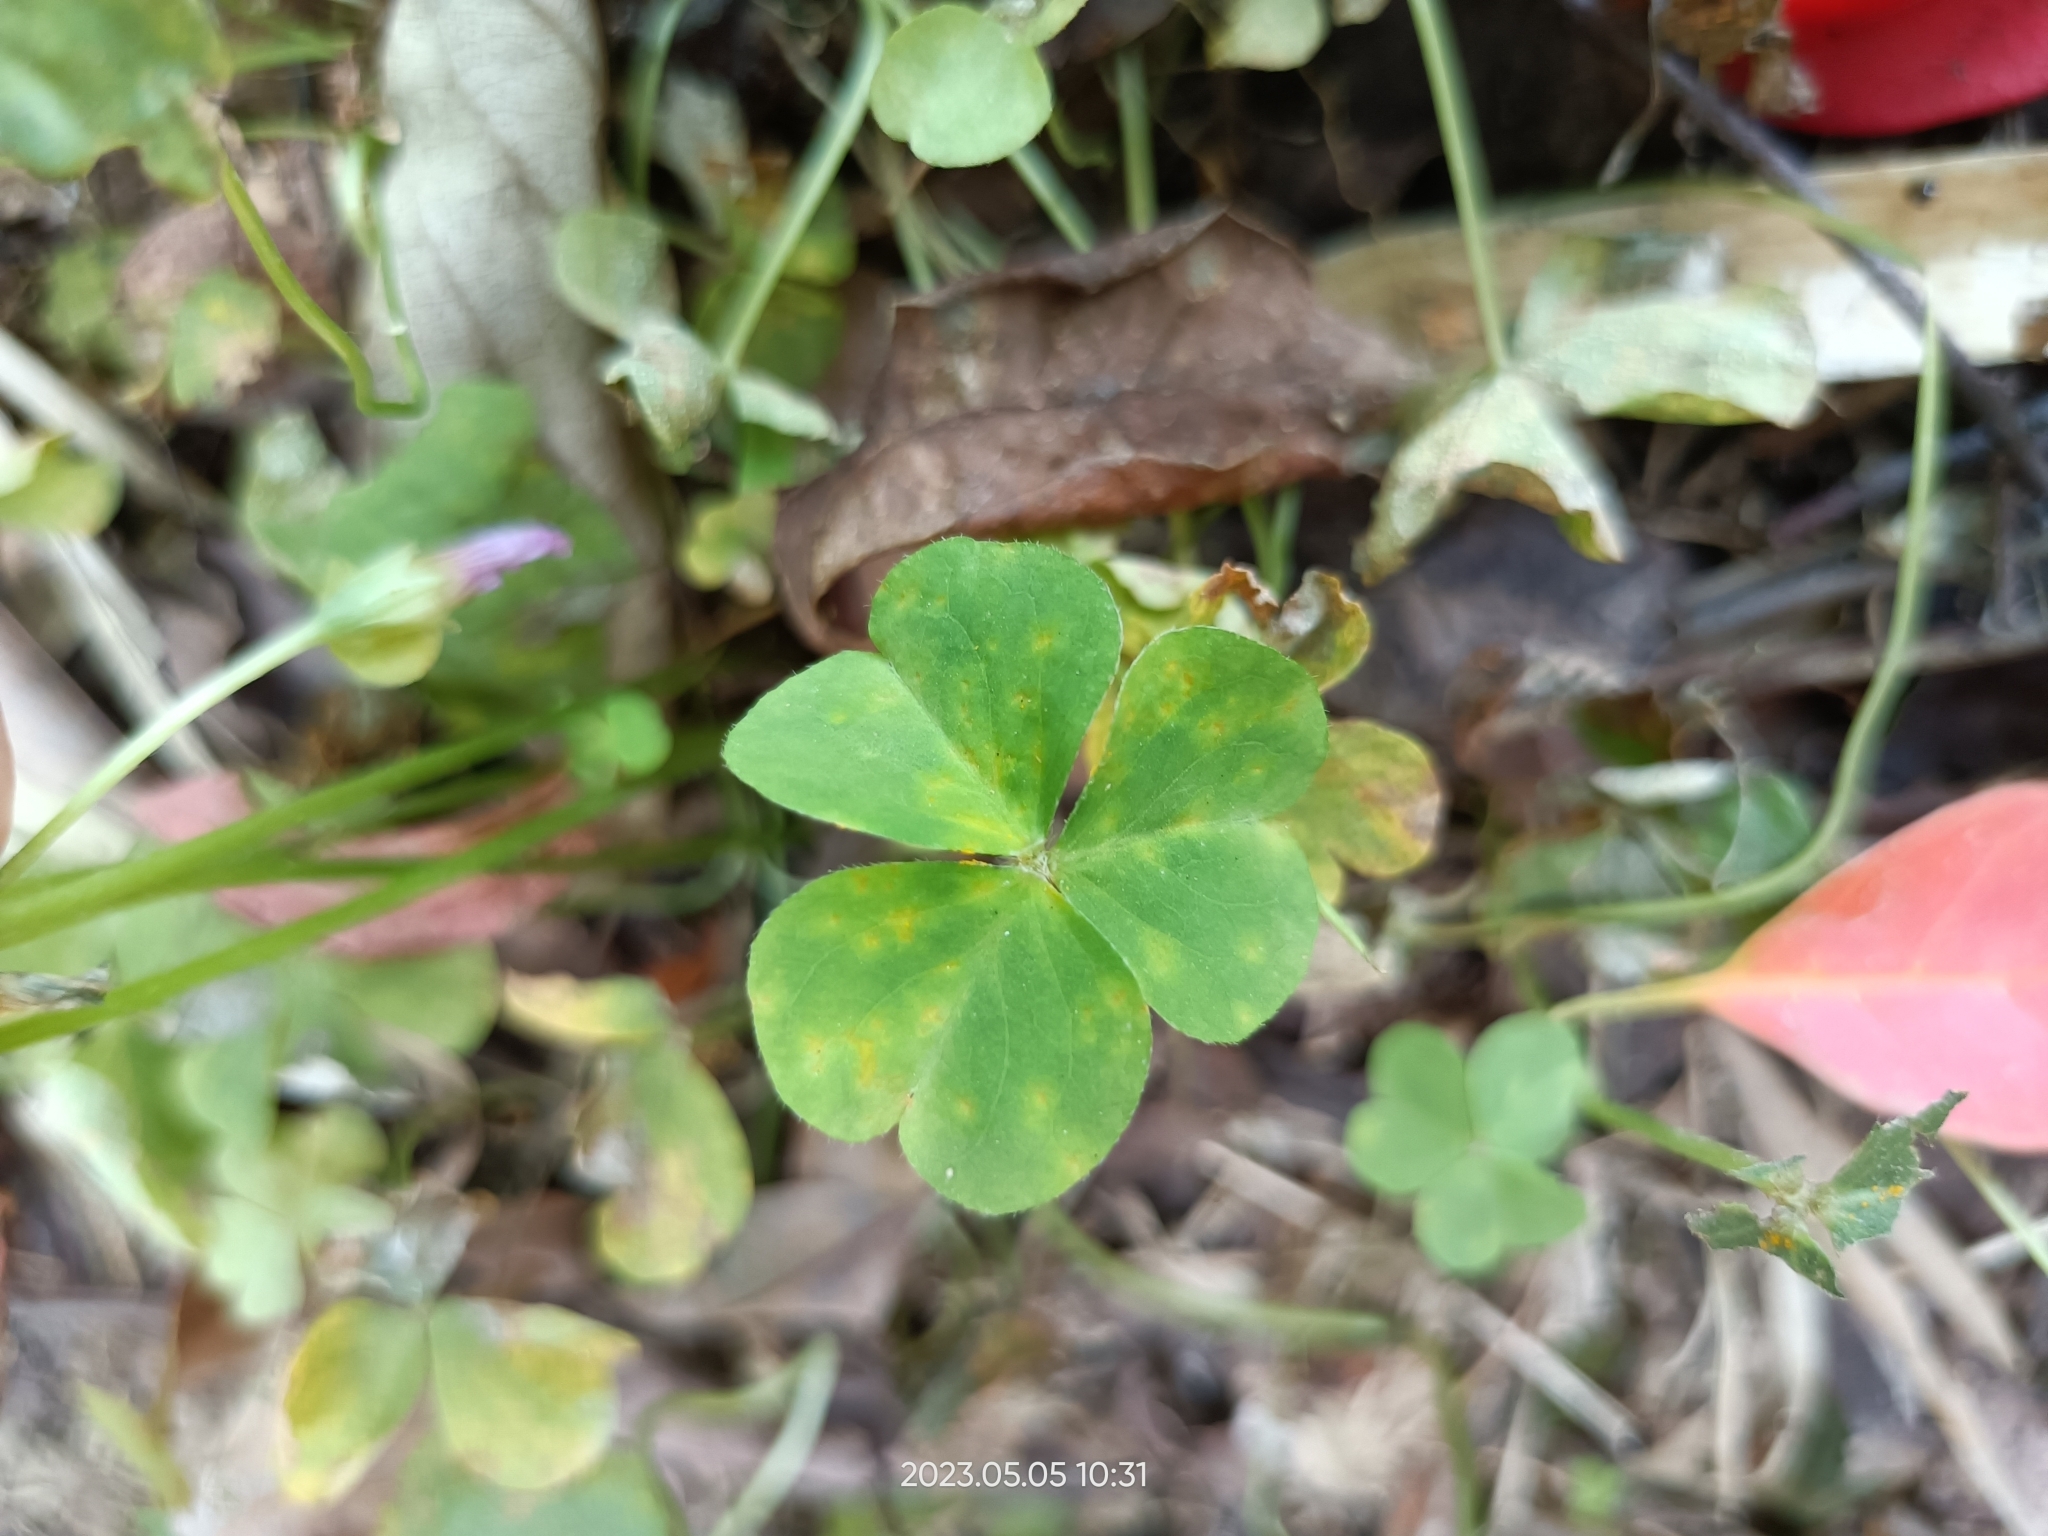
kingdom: Plantae
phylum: Tracheophyta
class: Magnoliopsida
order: Oxalidales
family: Oxalidaceae
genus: Oxalis
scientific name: Oxalis debilis
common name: Large-flowered pink-sorrel
